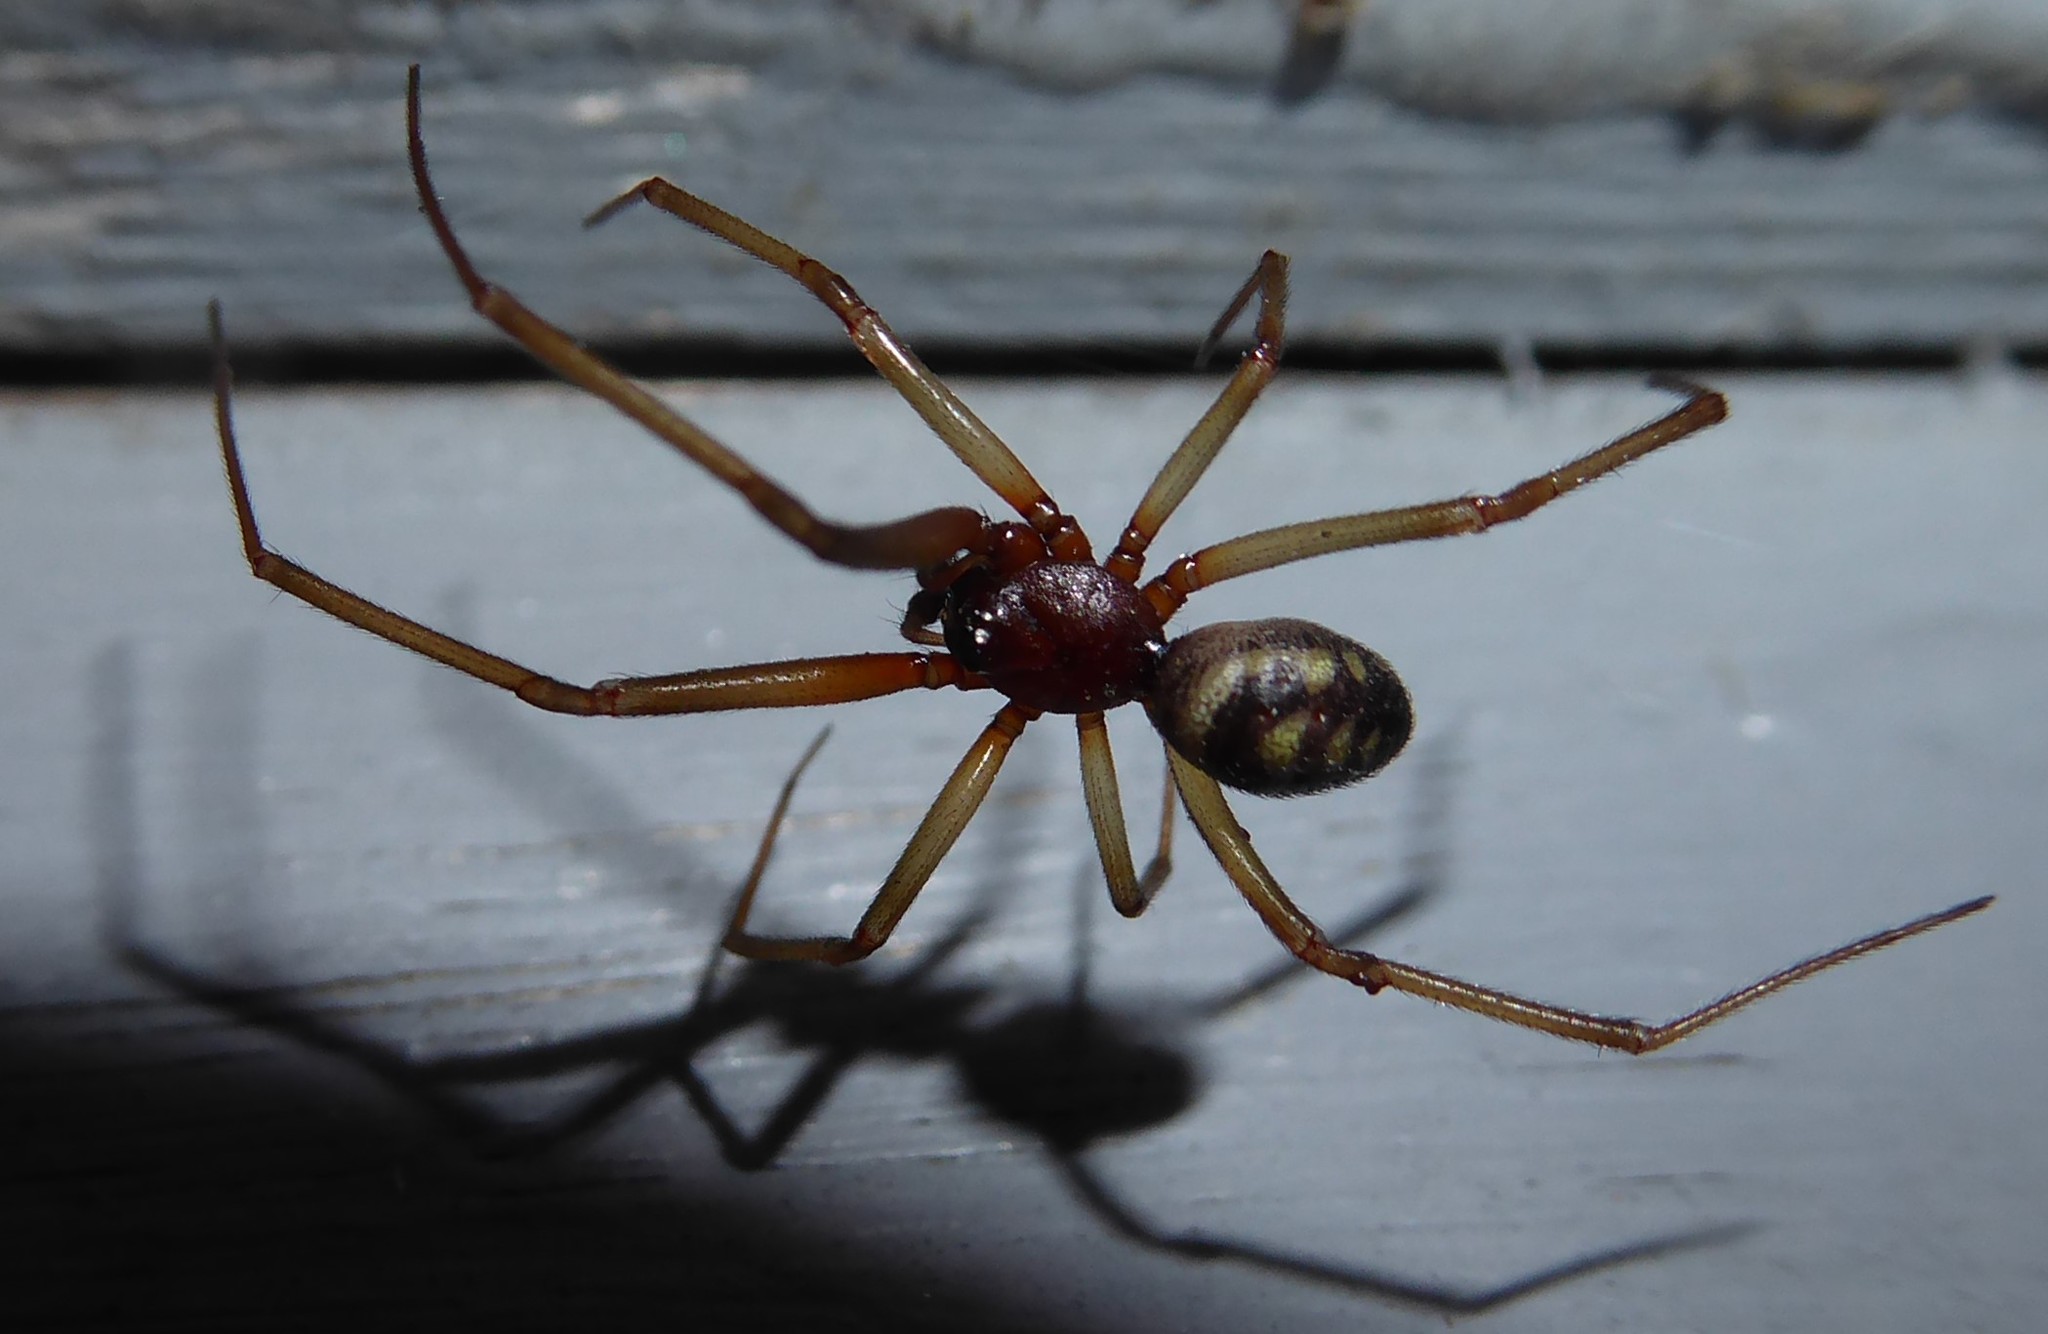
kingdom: Animalia
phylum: Arthropoda
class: Arachnida
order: Araneae
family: Theridiidae
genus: Steatoda
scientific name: Steatoda grossa
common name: False black widow
